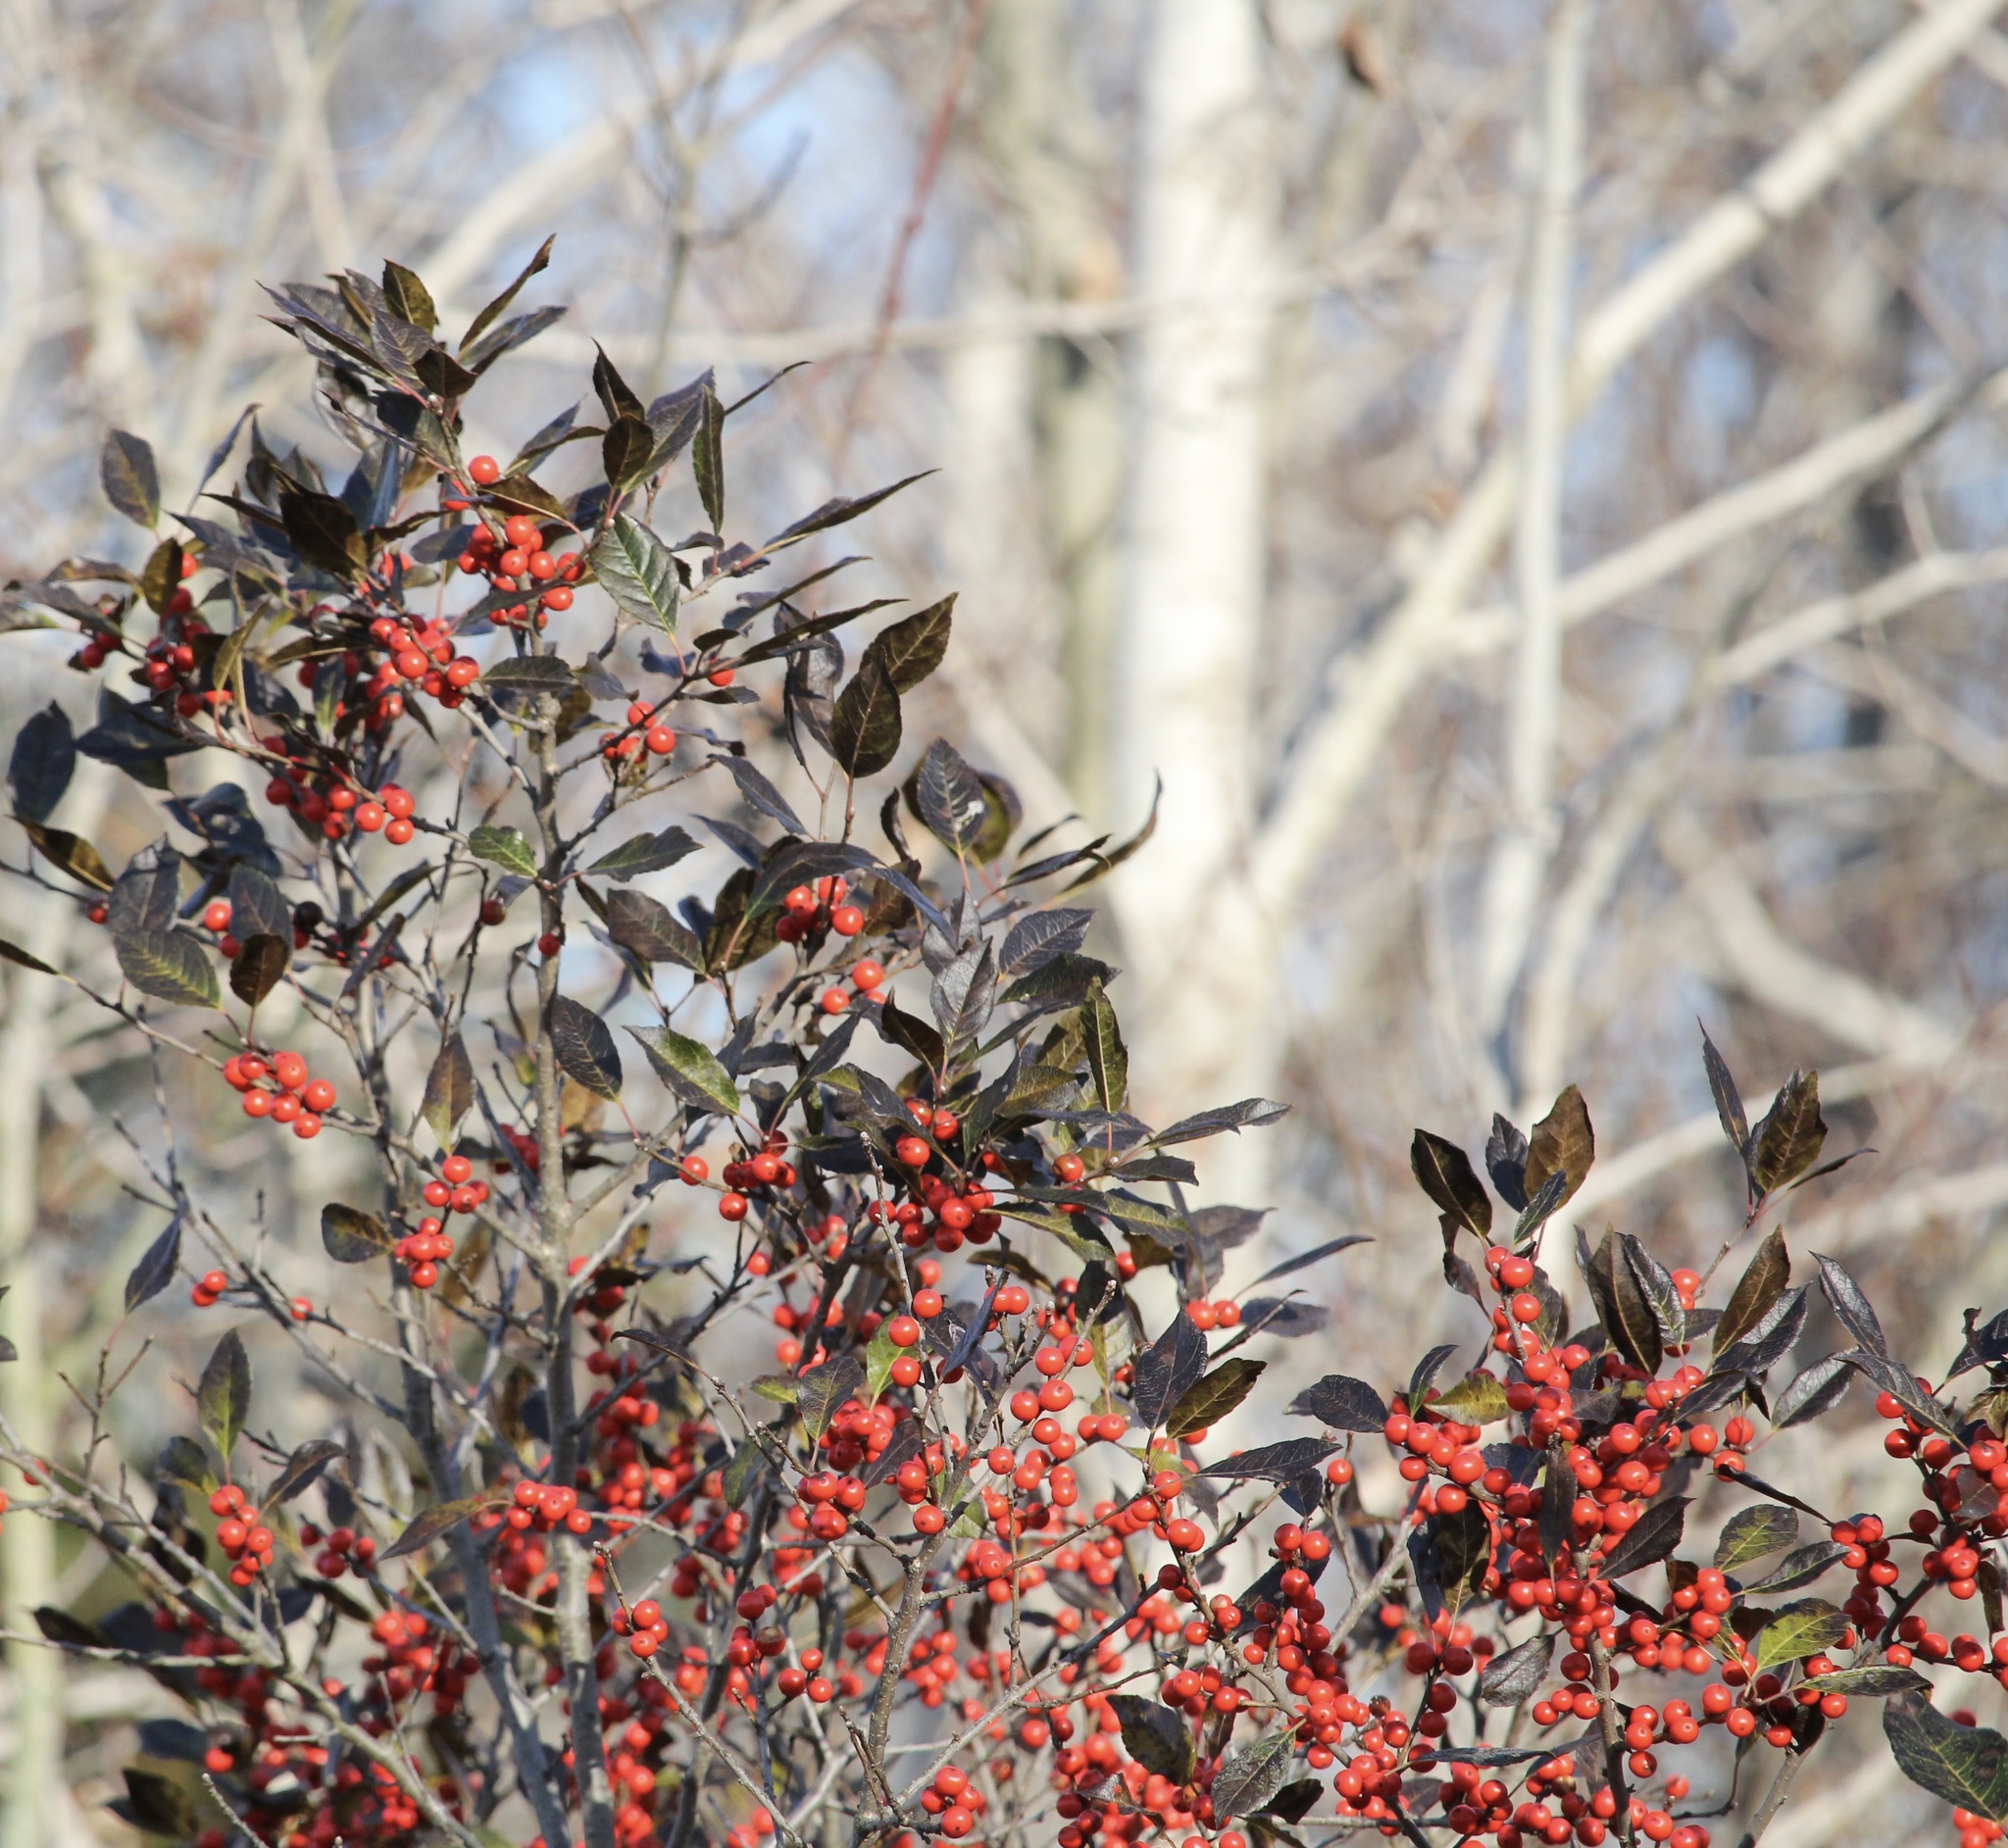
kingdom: Plantae
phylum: Tracheophyta
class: Magnoliopsida
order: Aquifoliales
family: Aquifoliaceae
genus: Ilex
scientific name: Ilex verticillata
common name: Virginia winterberry
